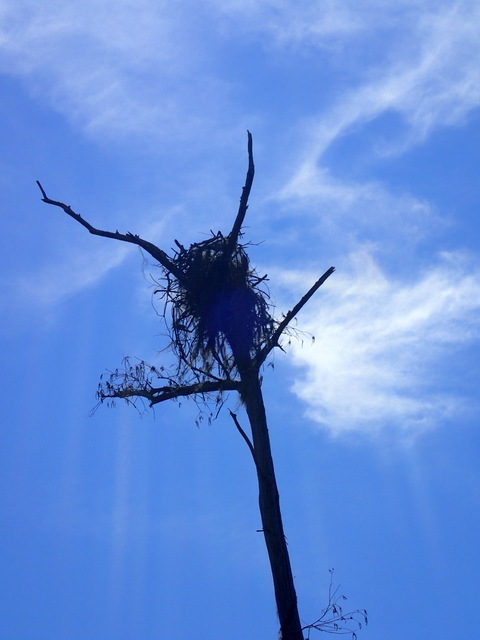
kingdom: Animalia
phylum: Chordata
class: Aves
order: Accipitriformes
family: Pandionidae
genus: Pandion
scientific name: Pandion haliaetus
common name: Osprey
